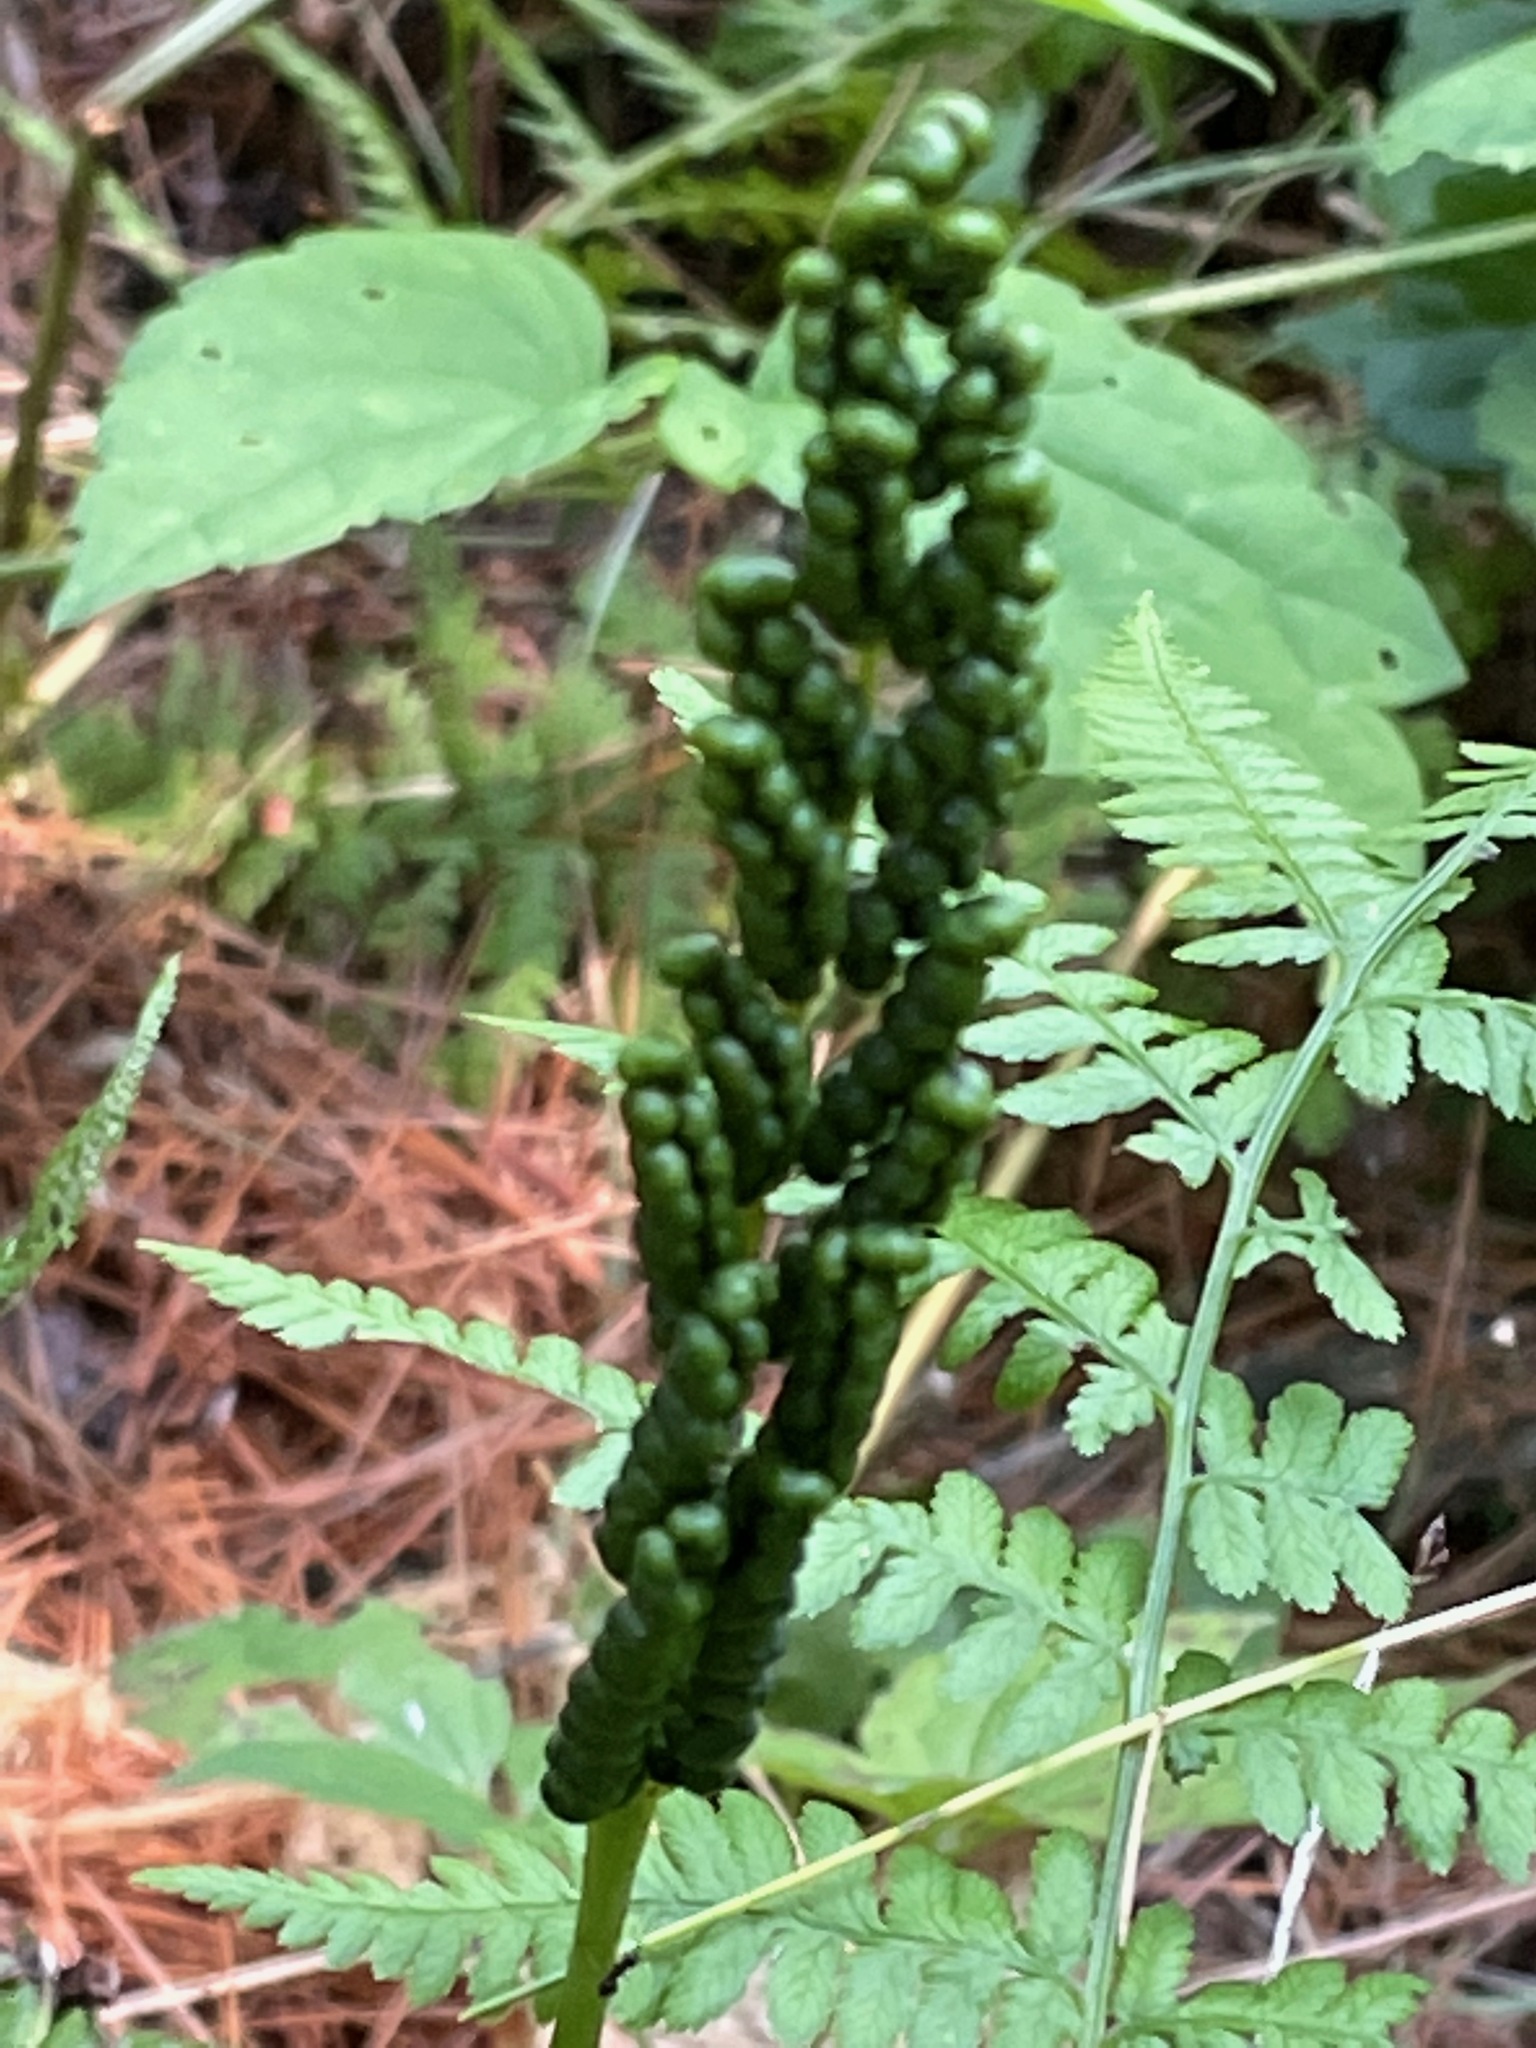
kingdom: Plantae
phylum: Tracheophyta
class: Polypodiopsida
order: Polypodiales
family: Onocleaceae
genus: Onoclea
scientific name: Onoclea sensibilis
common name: Sensitive fern
